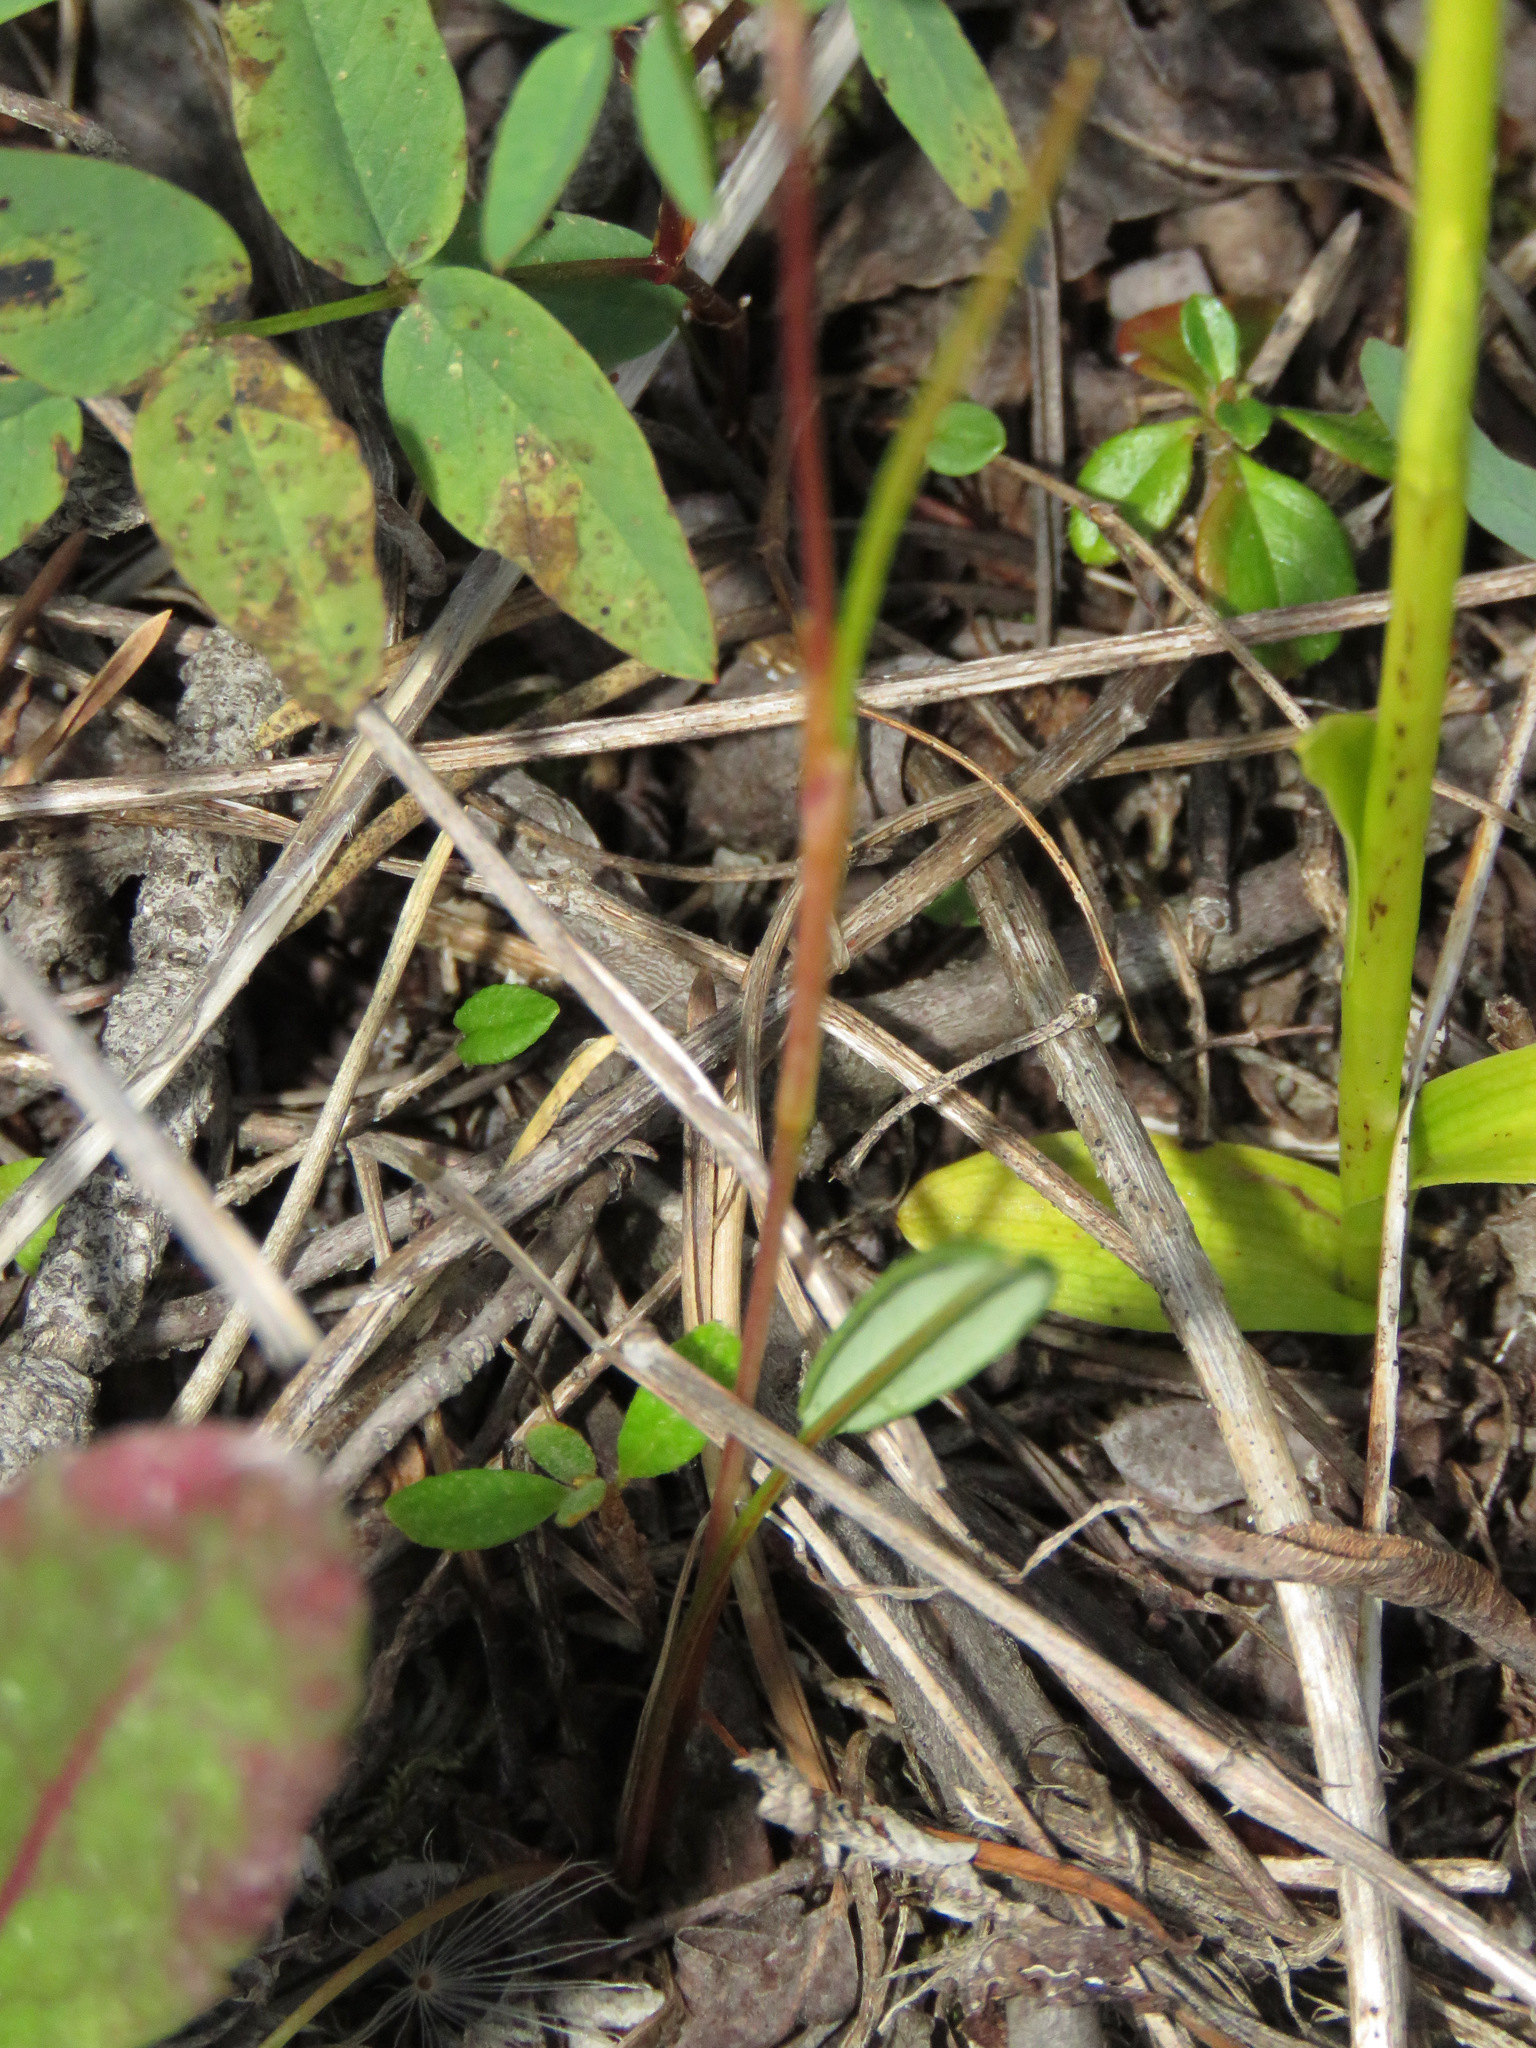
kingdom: Plantae
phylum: Tracheophyta
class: Magnoliopsida
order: Caryophyllales
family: Polygonaceae
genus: Bistorta
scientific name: Bistorta vivipara
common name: Alpine bistort
